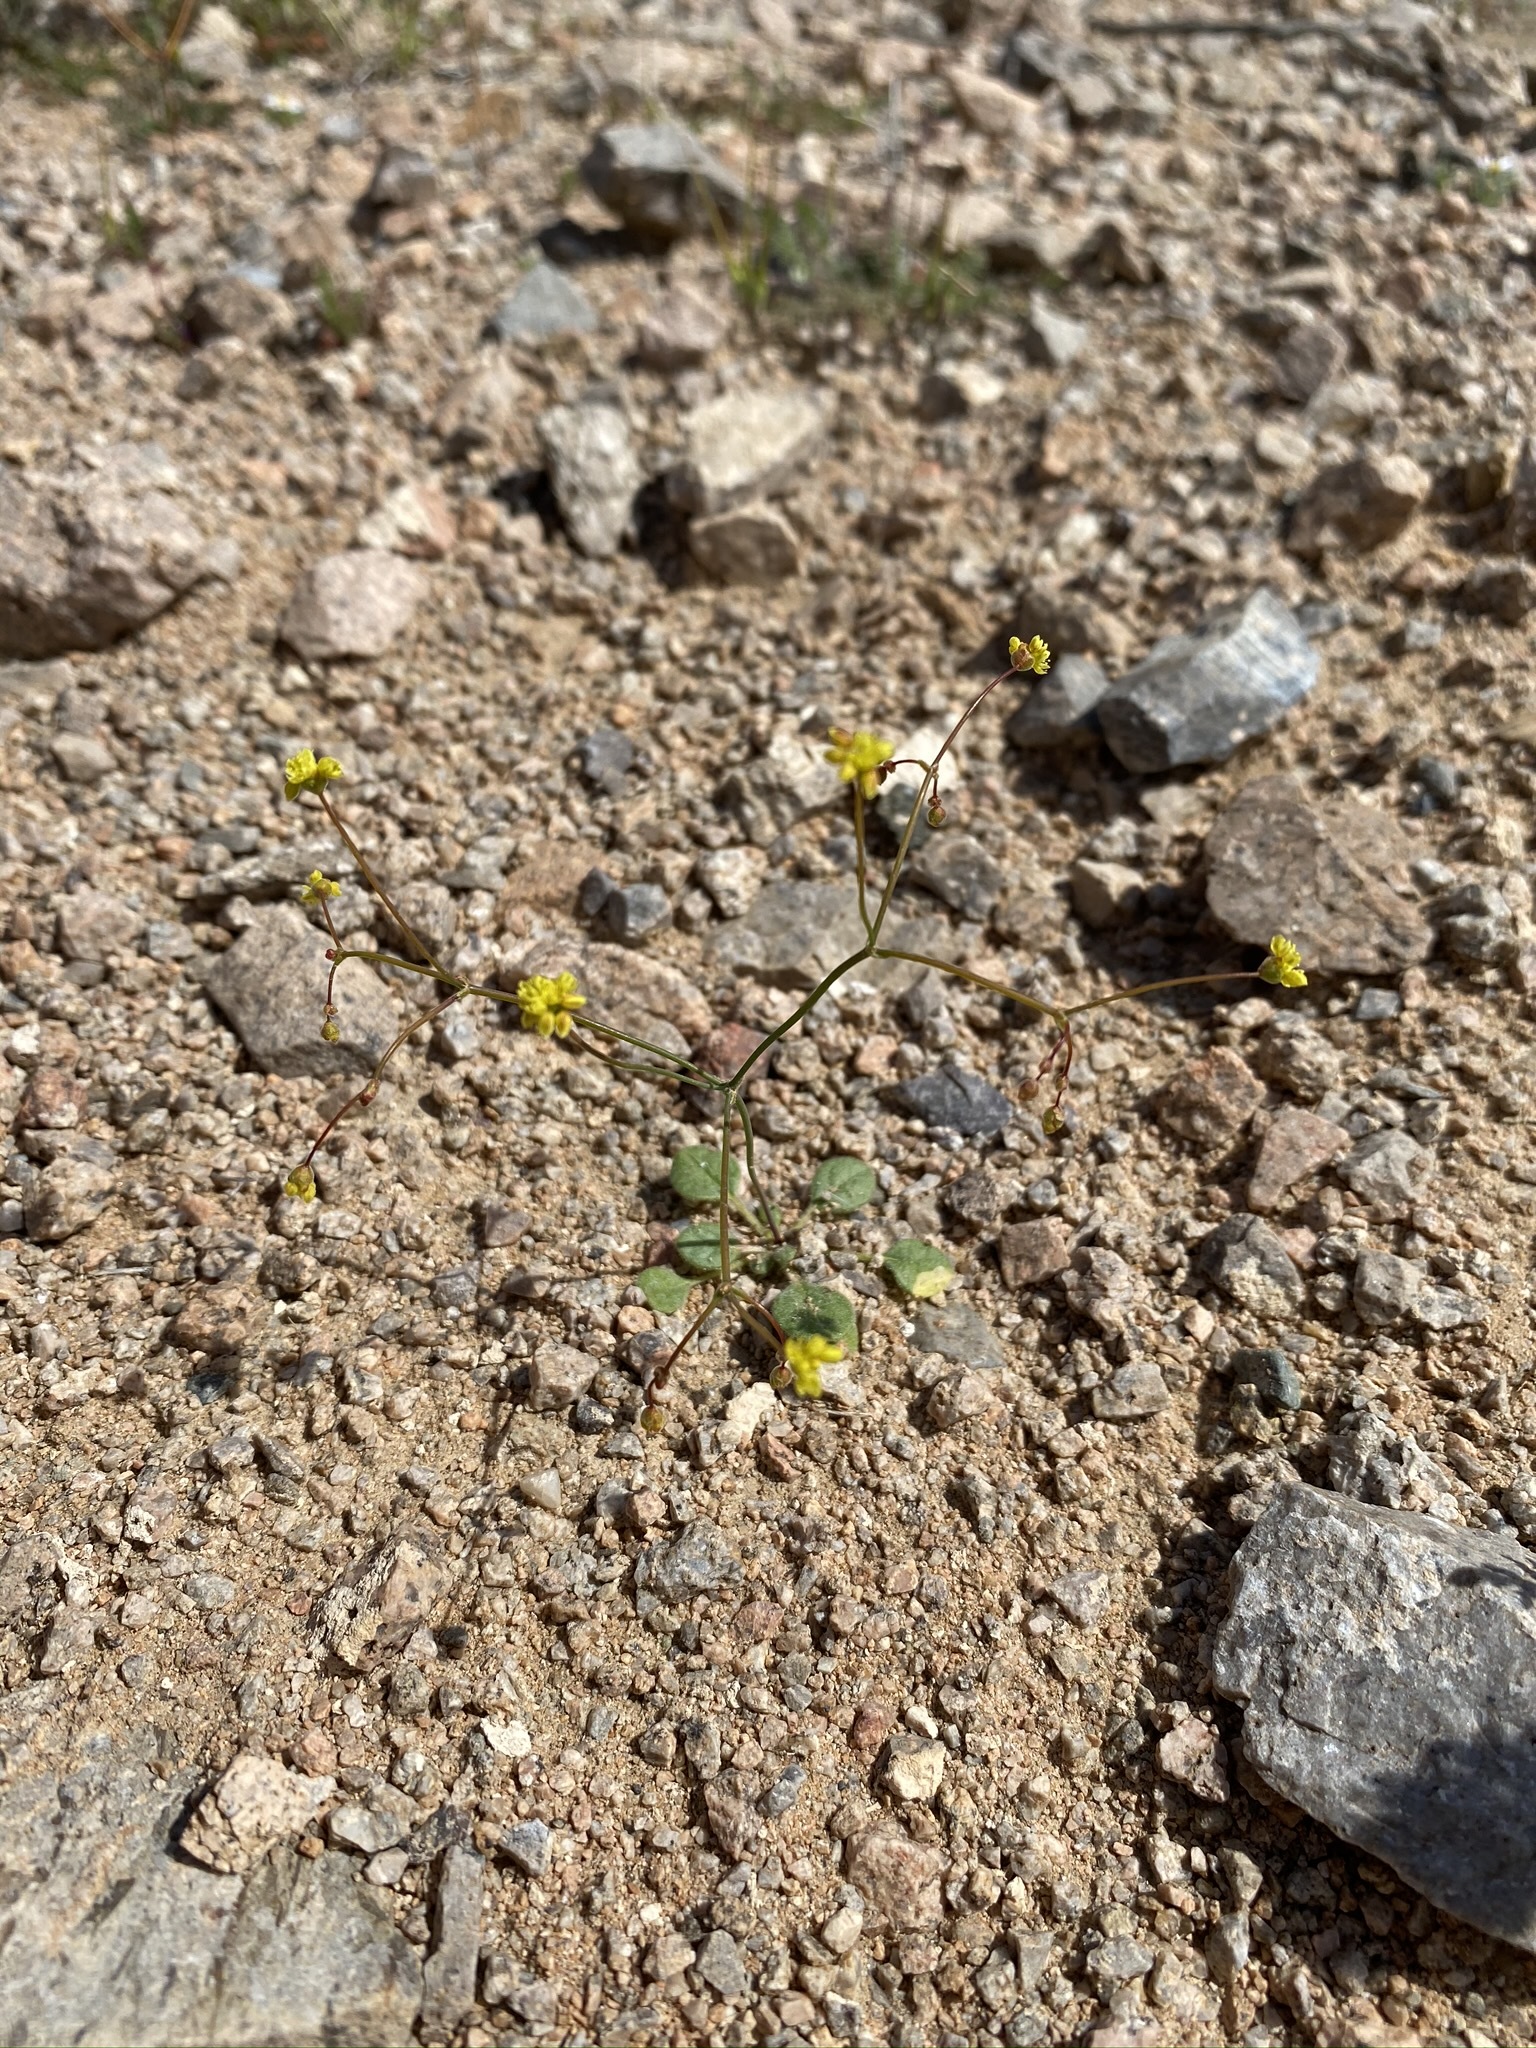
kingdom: Plantae
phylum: Tracheophyta
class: Magnoliopsida
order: Caryophyllales
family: Polygonaceae
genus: Eriogonum
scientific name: Eriogonum pusillum
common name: Yellow turbans
